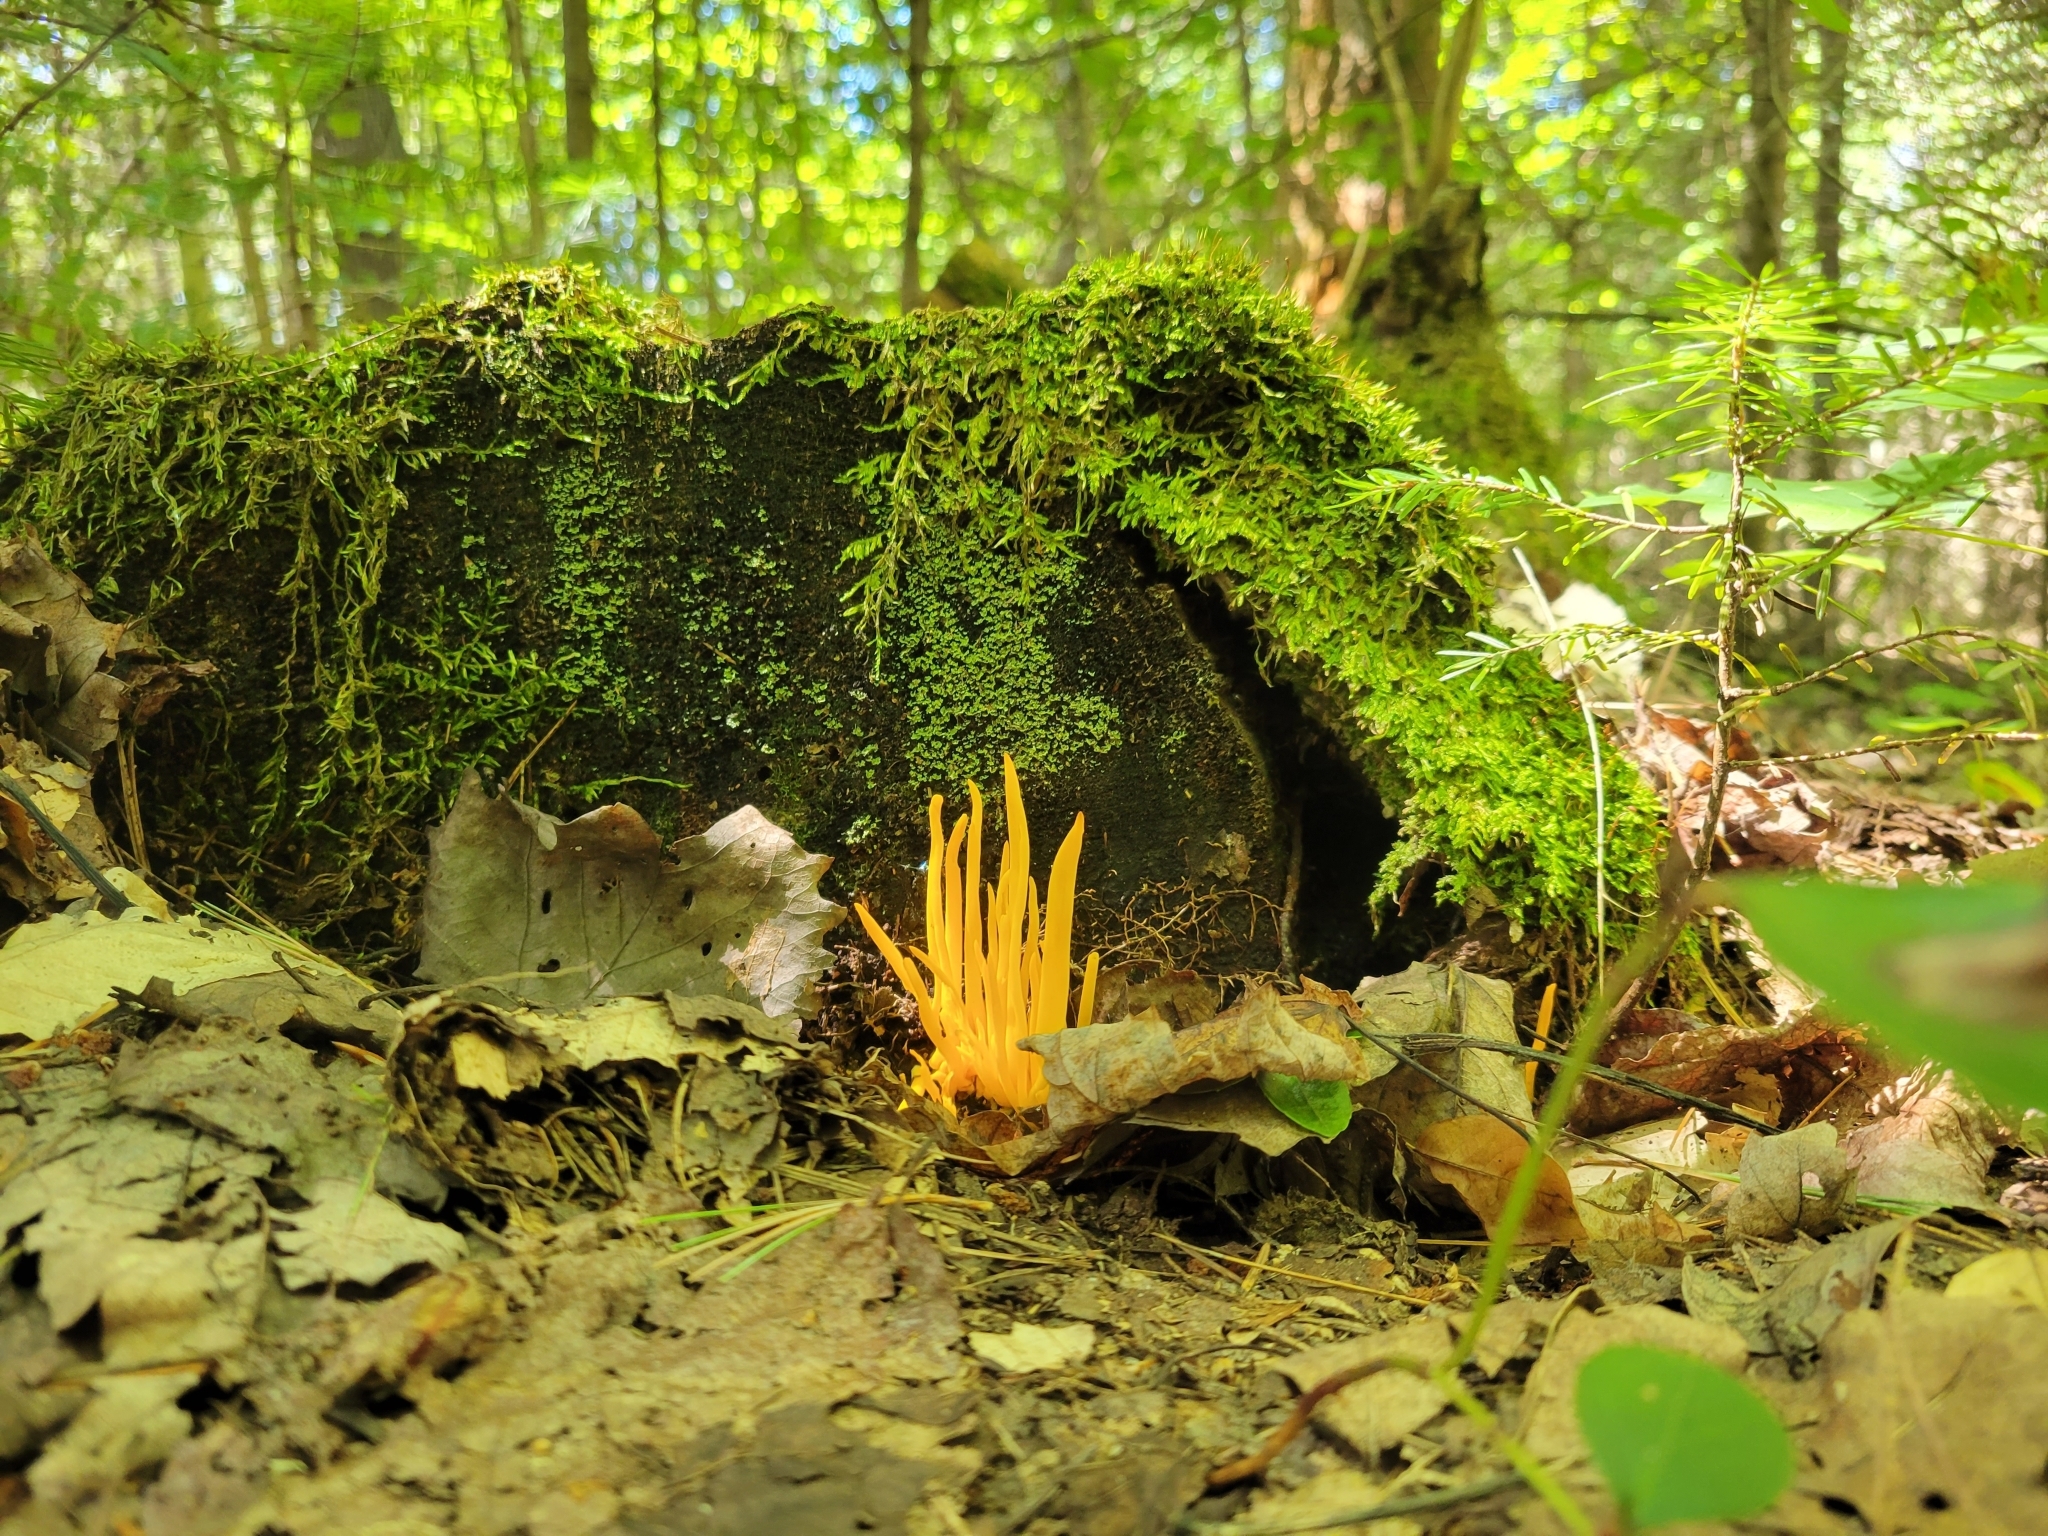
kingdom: Fungi
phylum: Basidiomycota
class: Agaricomycetes
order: Agaricales
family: Clavariaceae
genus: Clavulinopsis
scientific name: Clavulinopsis fusiformis
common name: Golden spindles
